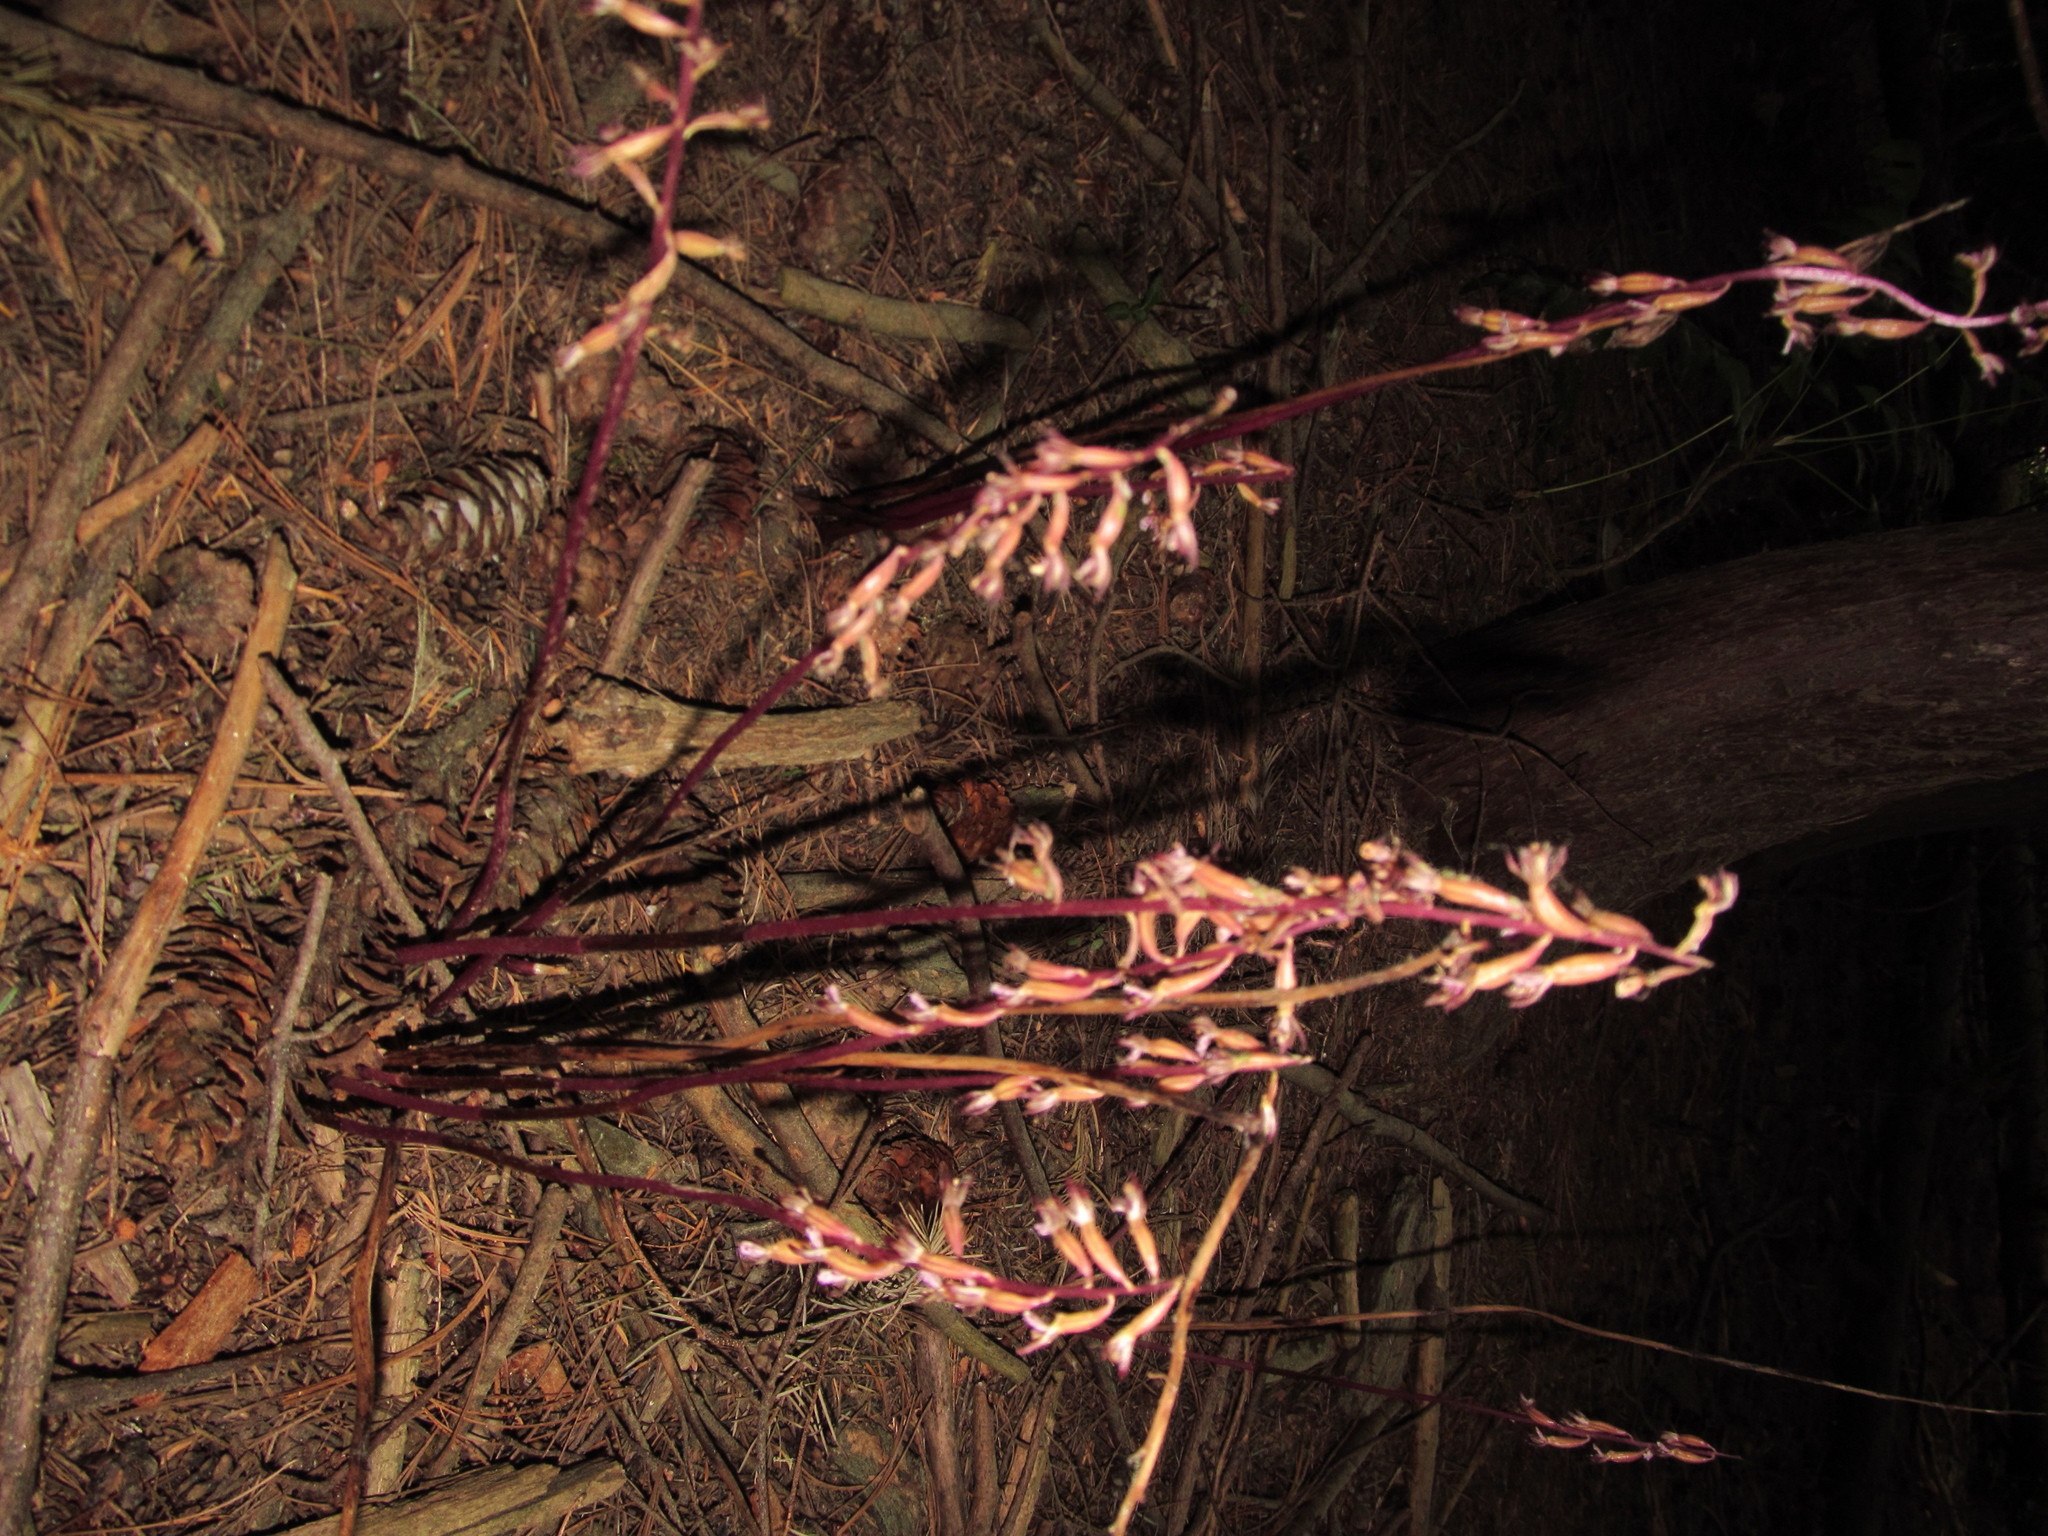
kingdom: Plantae
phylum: Tracheophyta
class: Liliopsida
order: Asparagales
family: Orchidaceae
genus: Corallorhiza
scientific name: Corallorhiza maculata
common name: Spotted coralroot
